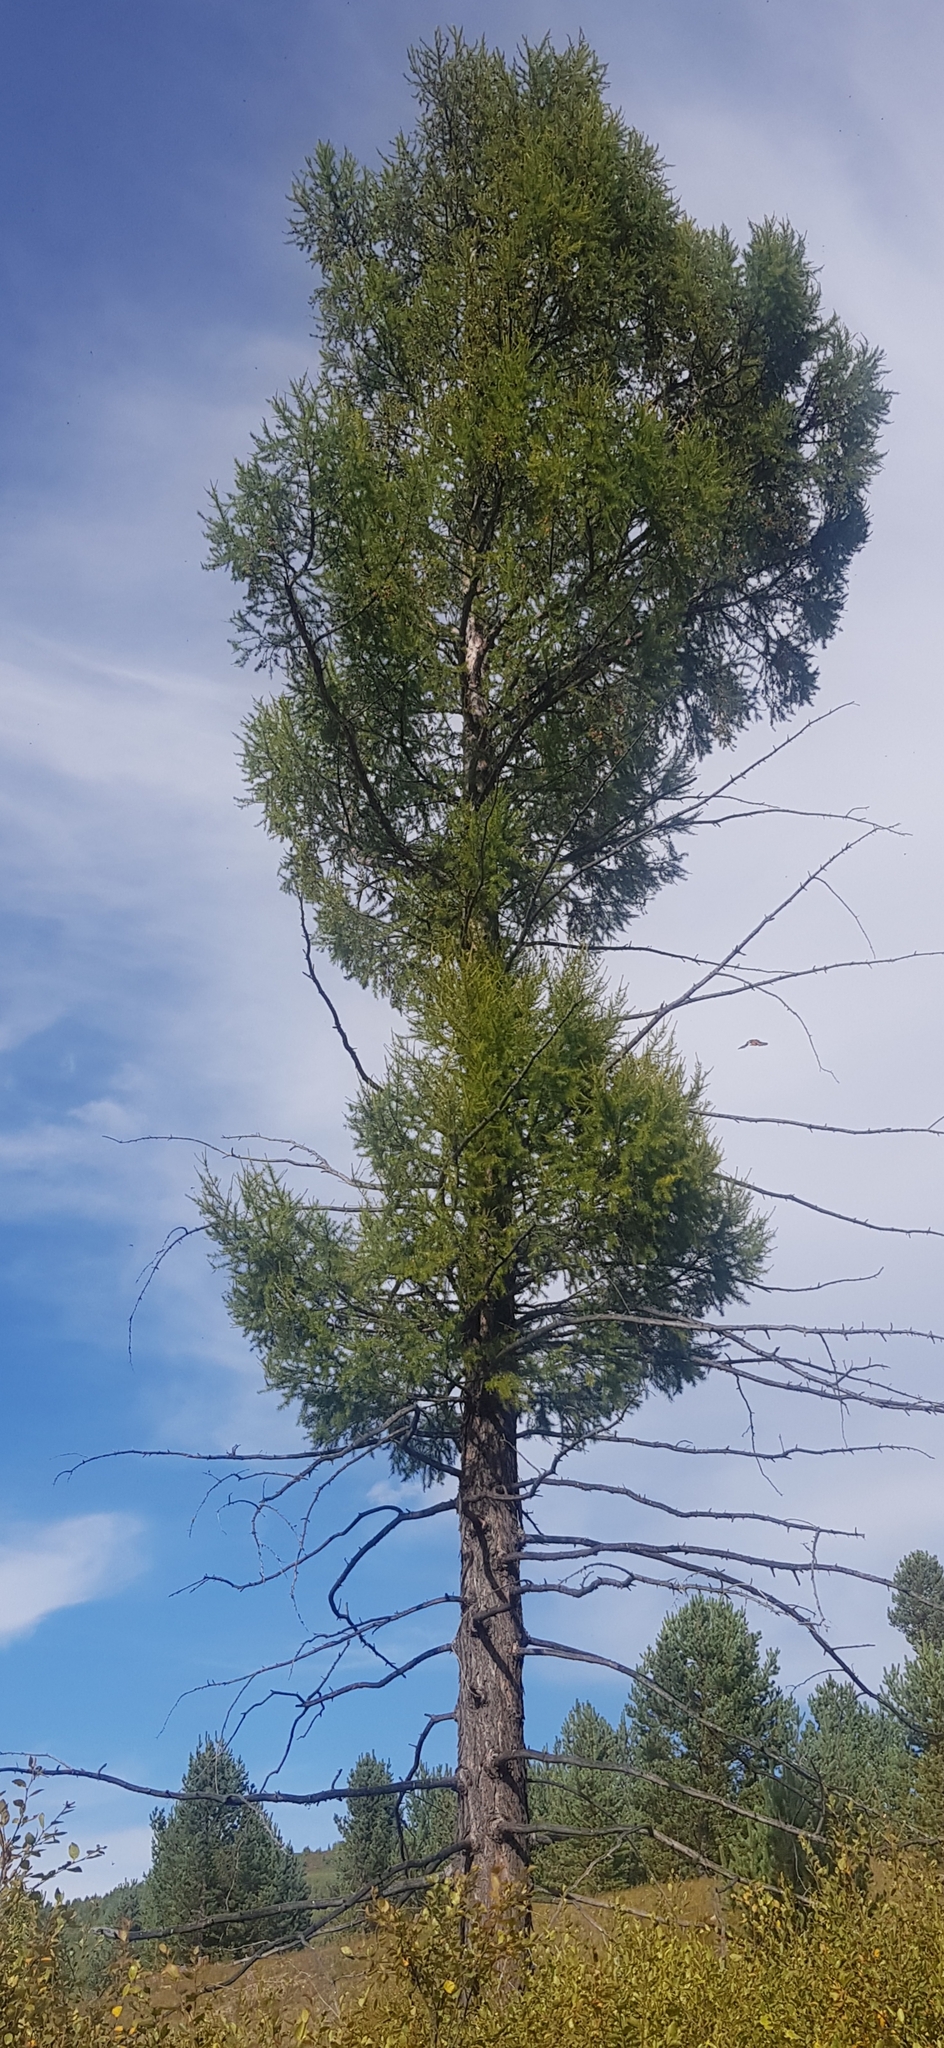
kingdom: Plantae
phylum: Tracheophyta
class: Pinopsida
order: Pinales
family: Pinaceae
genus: Larix
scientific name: Larix gmelinii
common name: Dahurian larch
